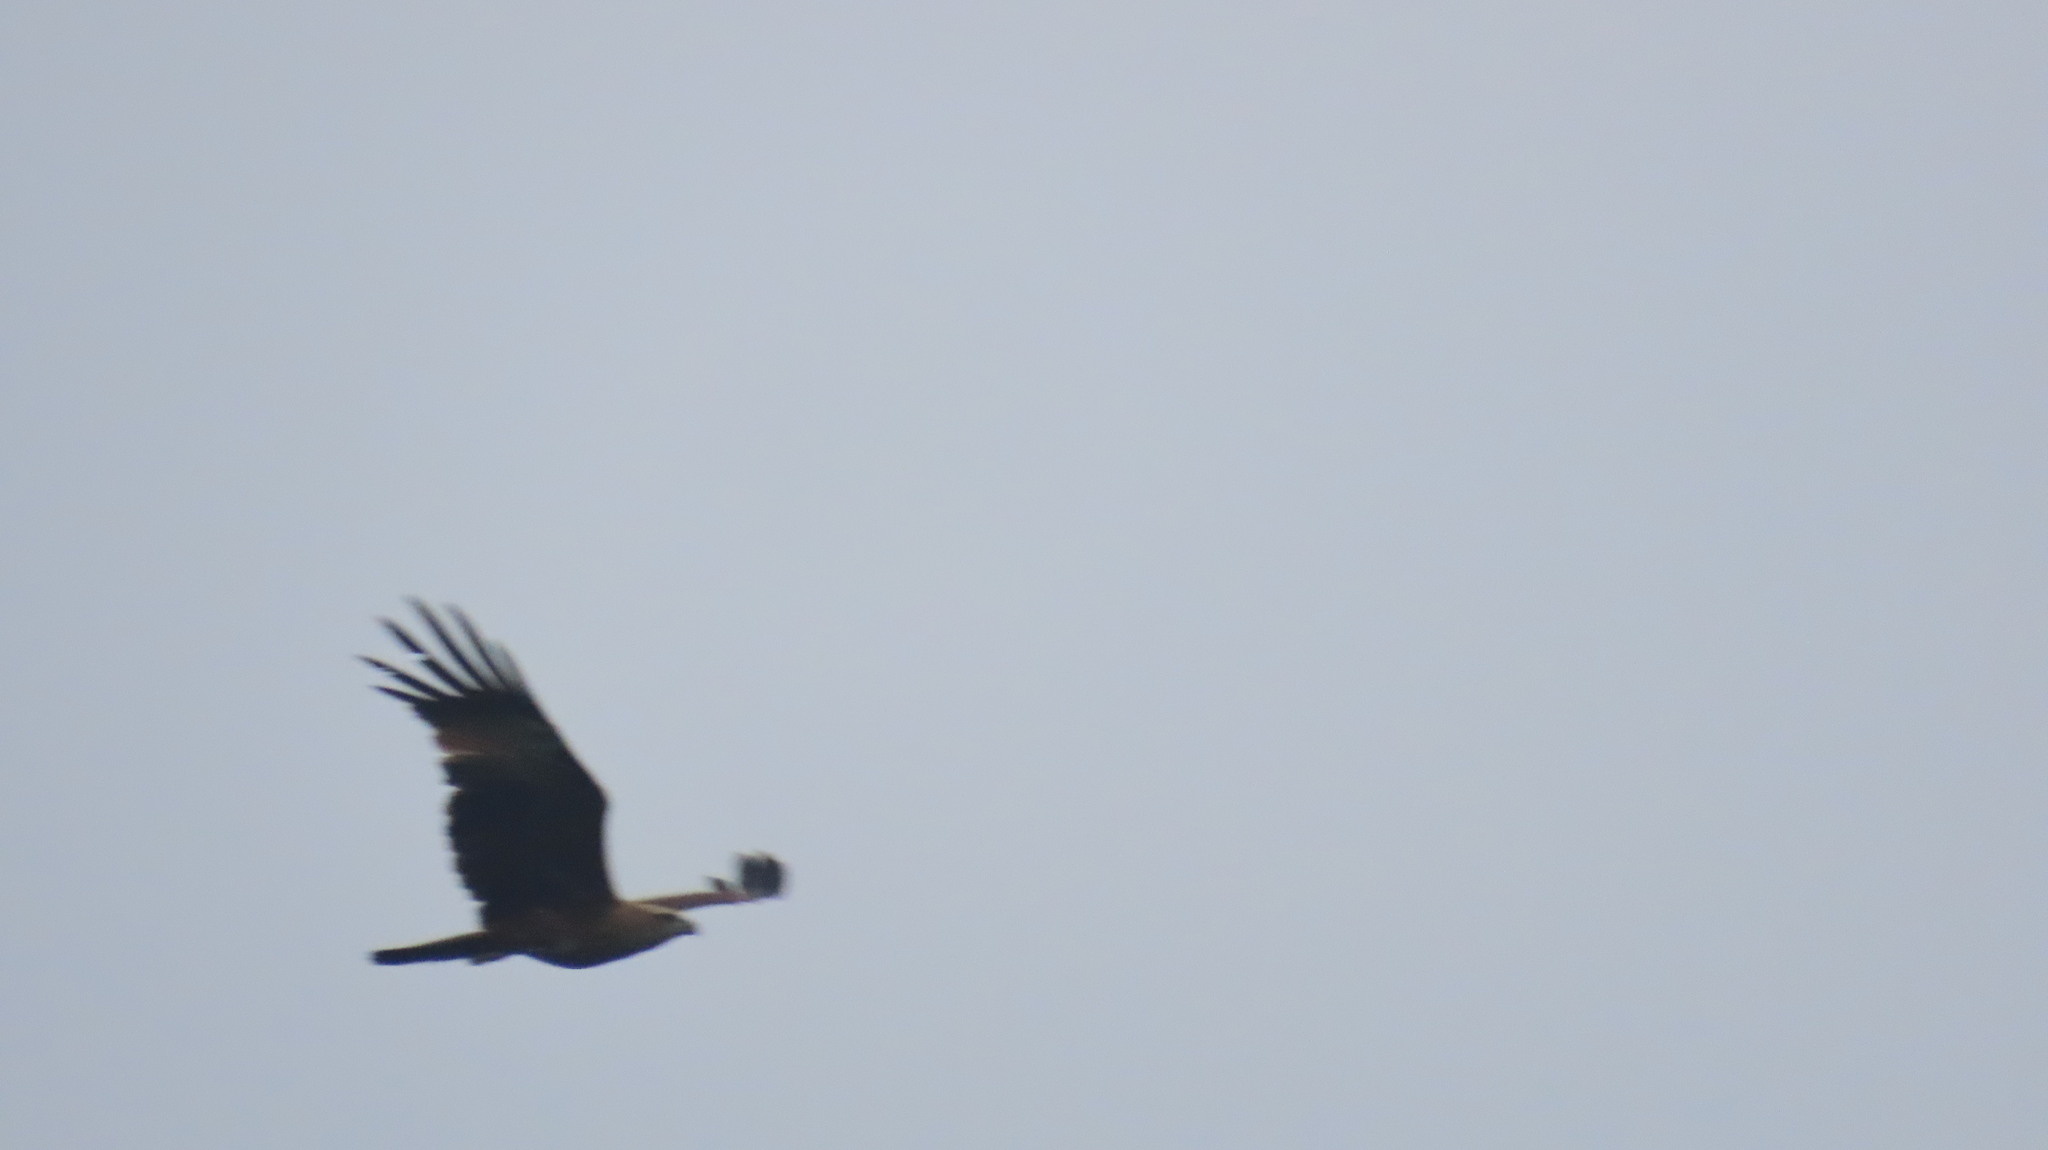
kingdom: Animalia
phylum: Chordata
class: Aves
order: Accipitriformes
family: Accipitridae
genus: Haliastur
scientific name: Haliastur indus
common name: Brahminy kite
